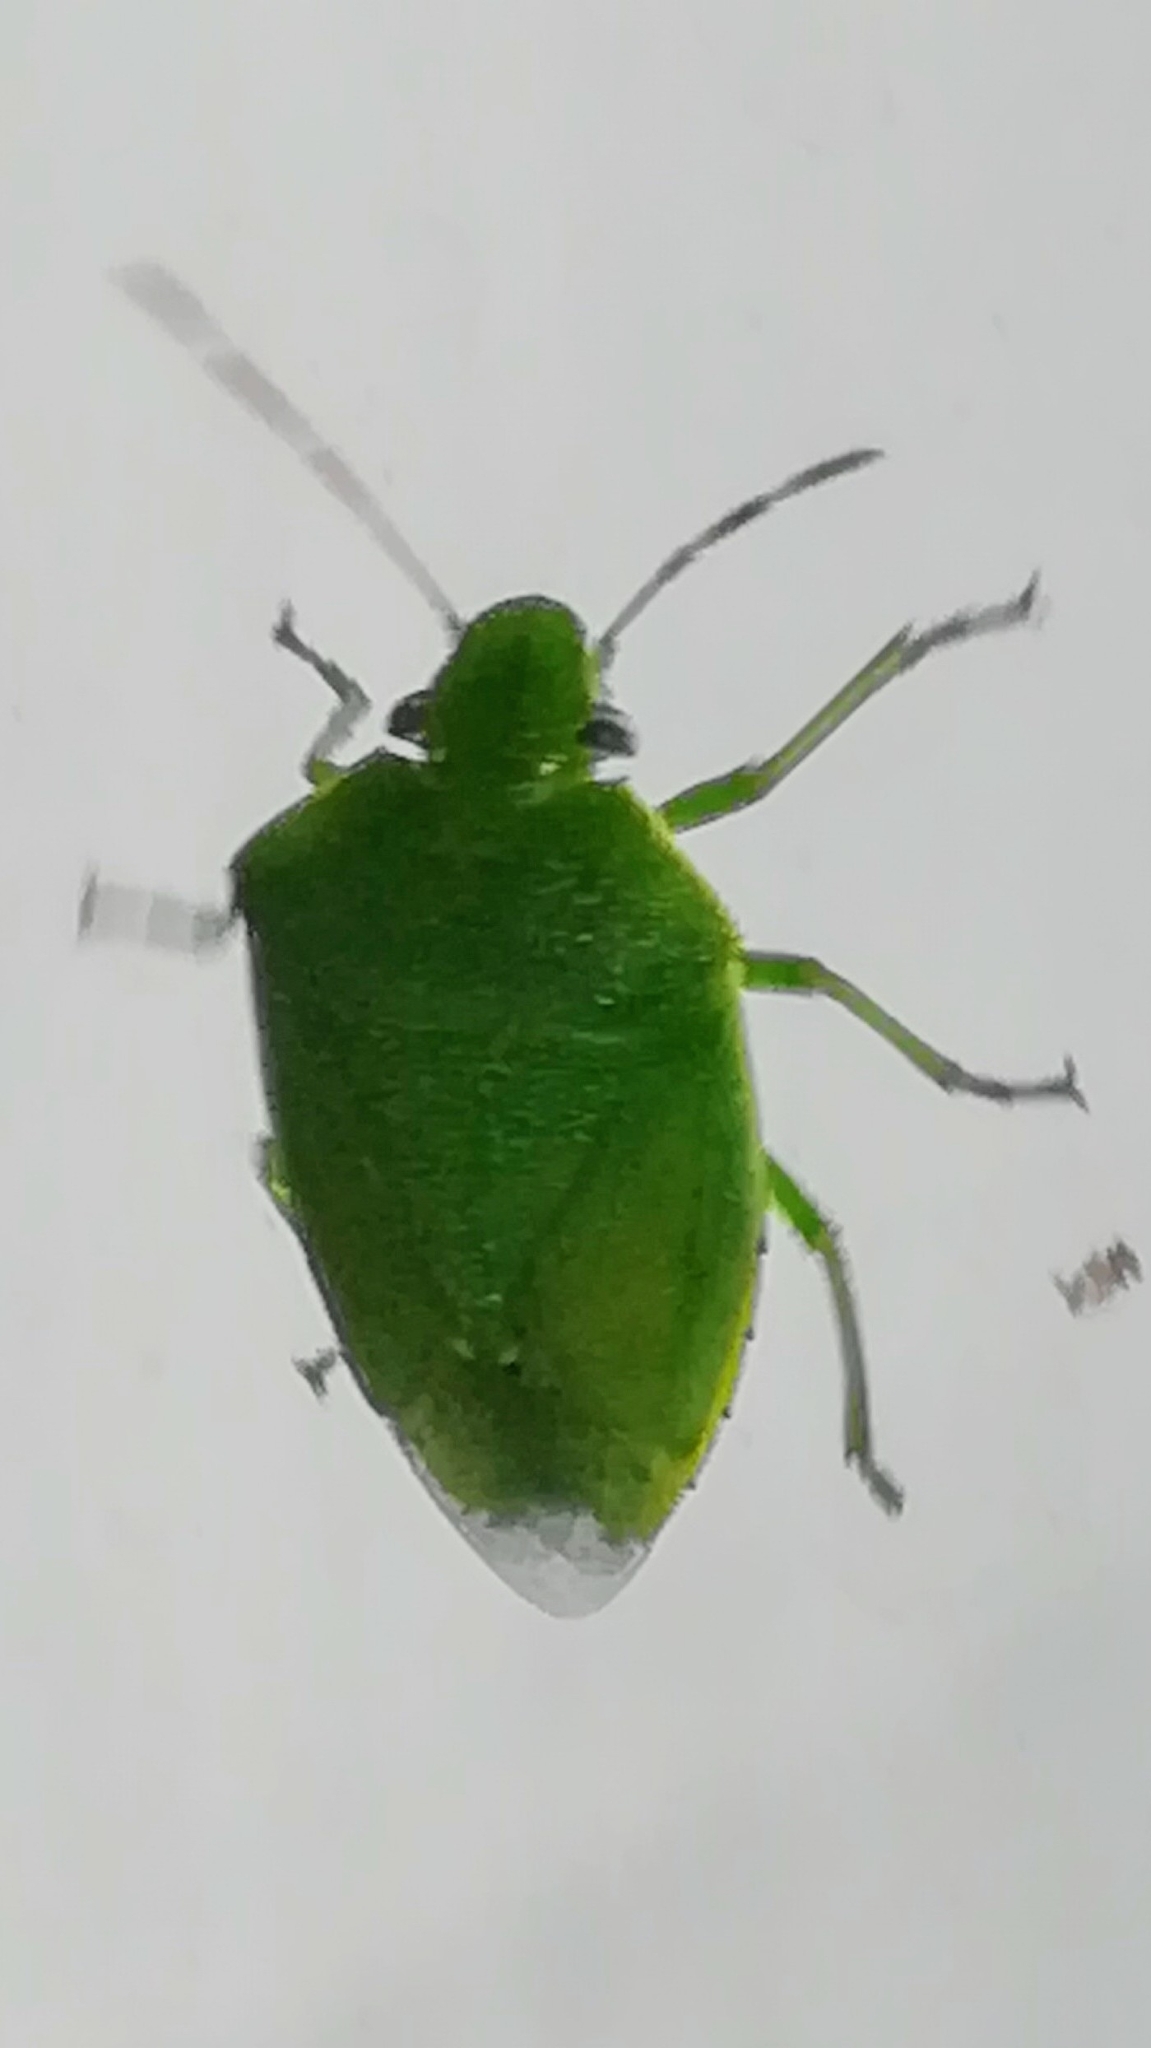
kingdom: Animalia
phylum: Arthropoda
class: Insecta
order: Hemiptera
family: Pentatomidae
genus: Acrosternum
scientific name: Acrosternum heegeri
